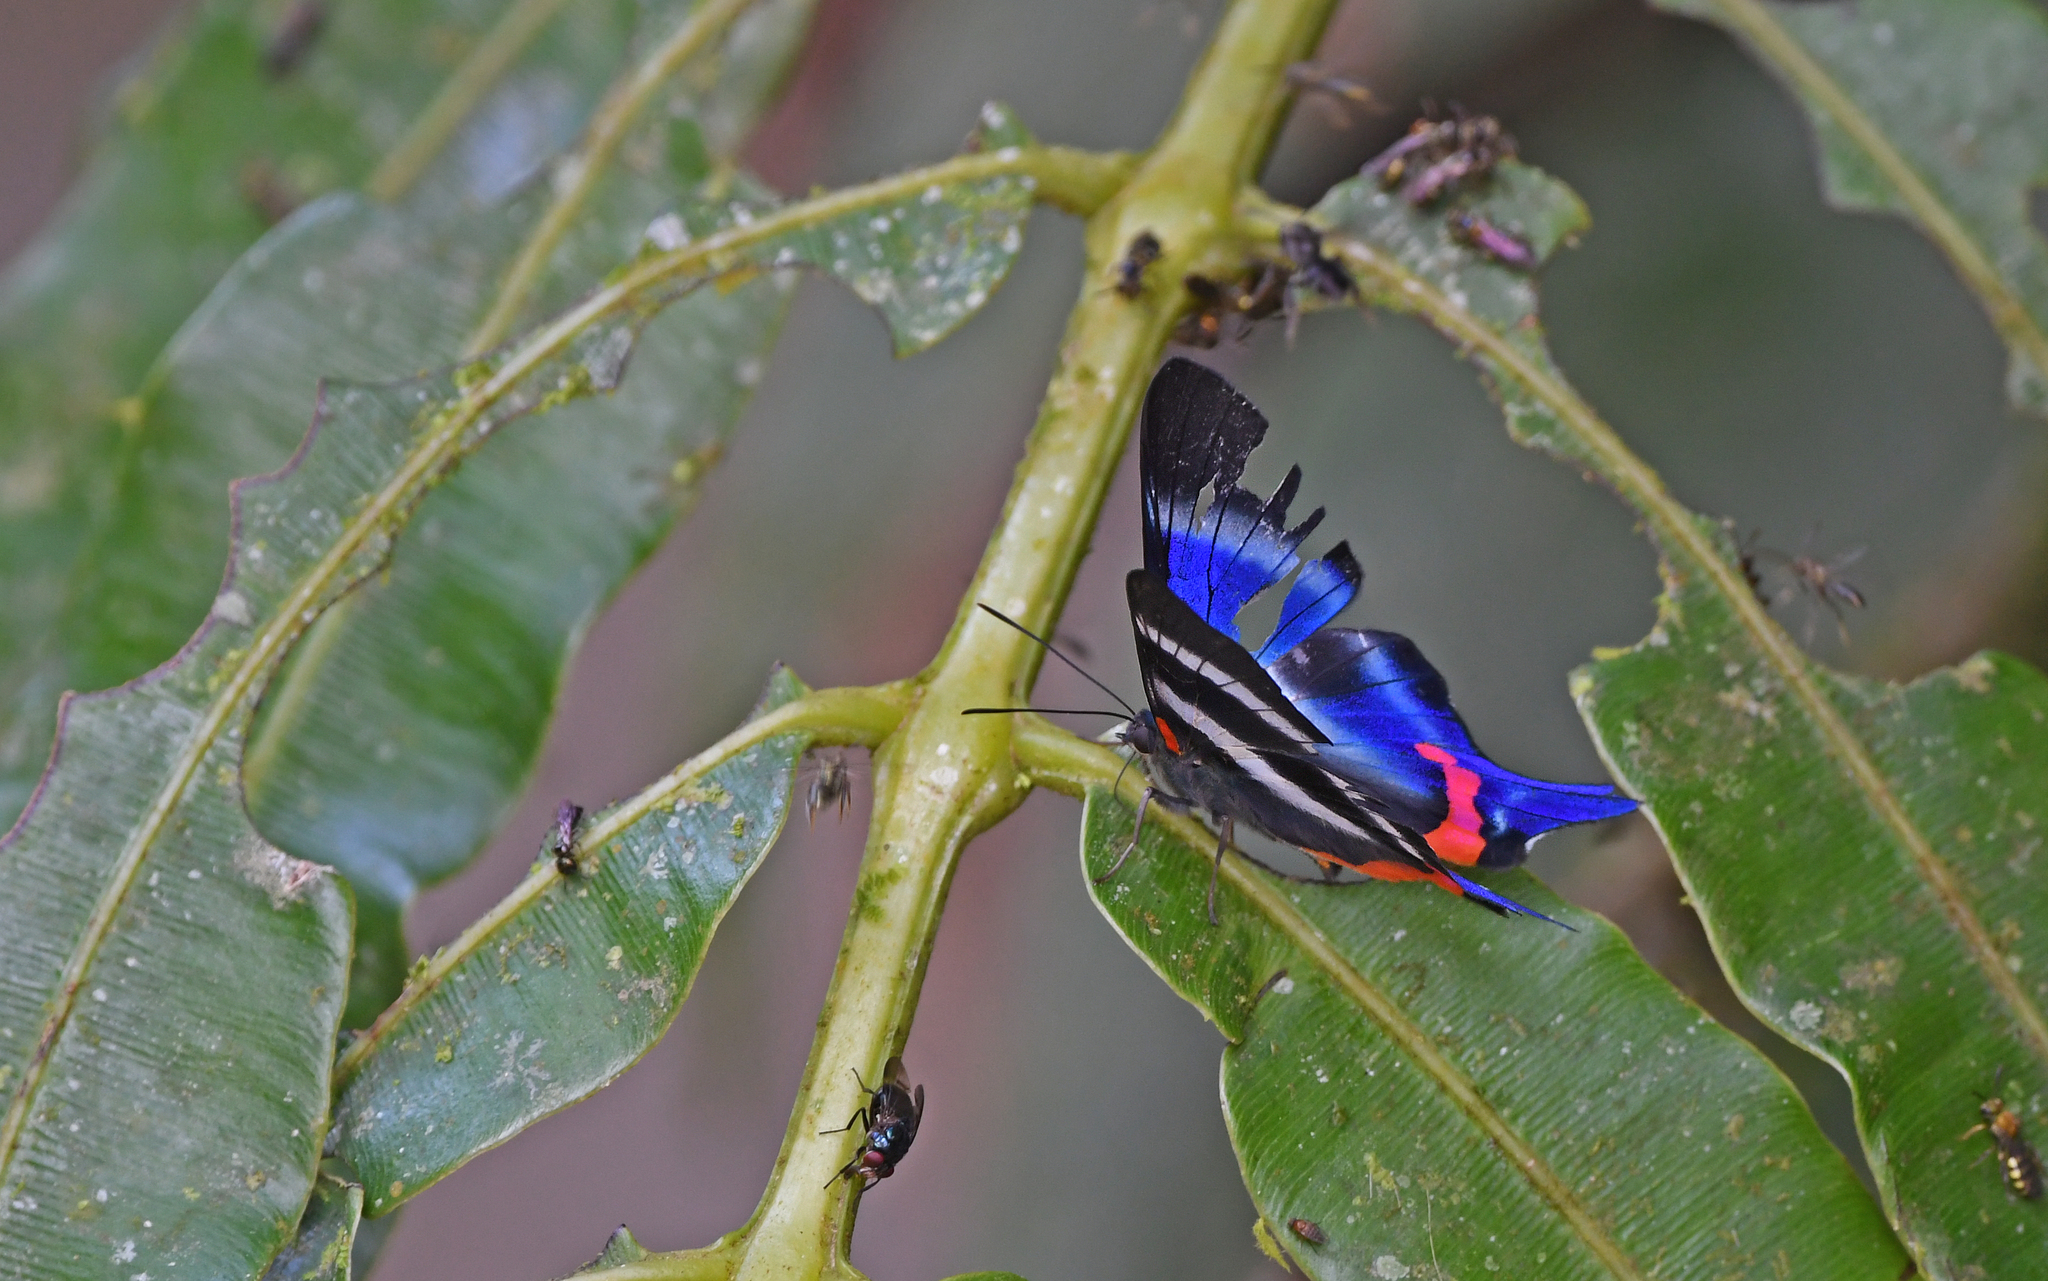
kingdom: Animalia
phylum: Arthropoda
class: Insecta
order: Lepidoptera
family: Riodinidae
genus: Rhetus
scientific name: Rhetus dysonii
